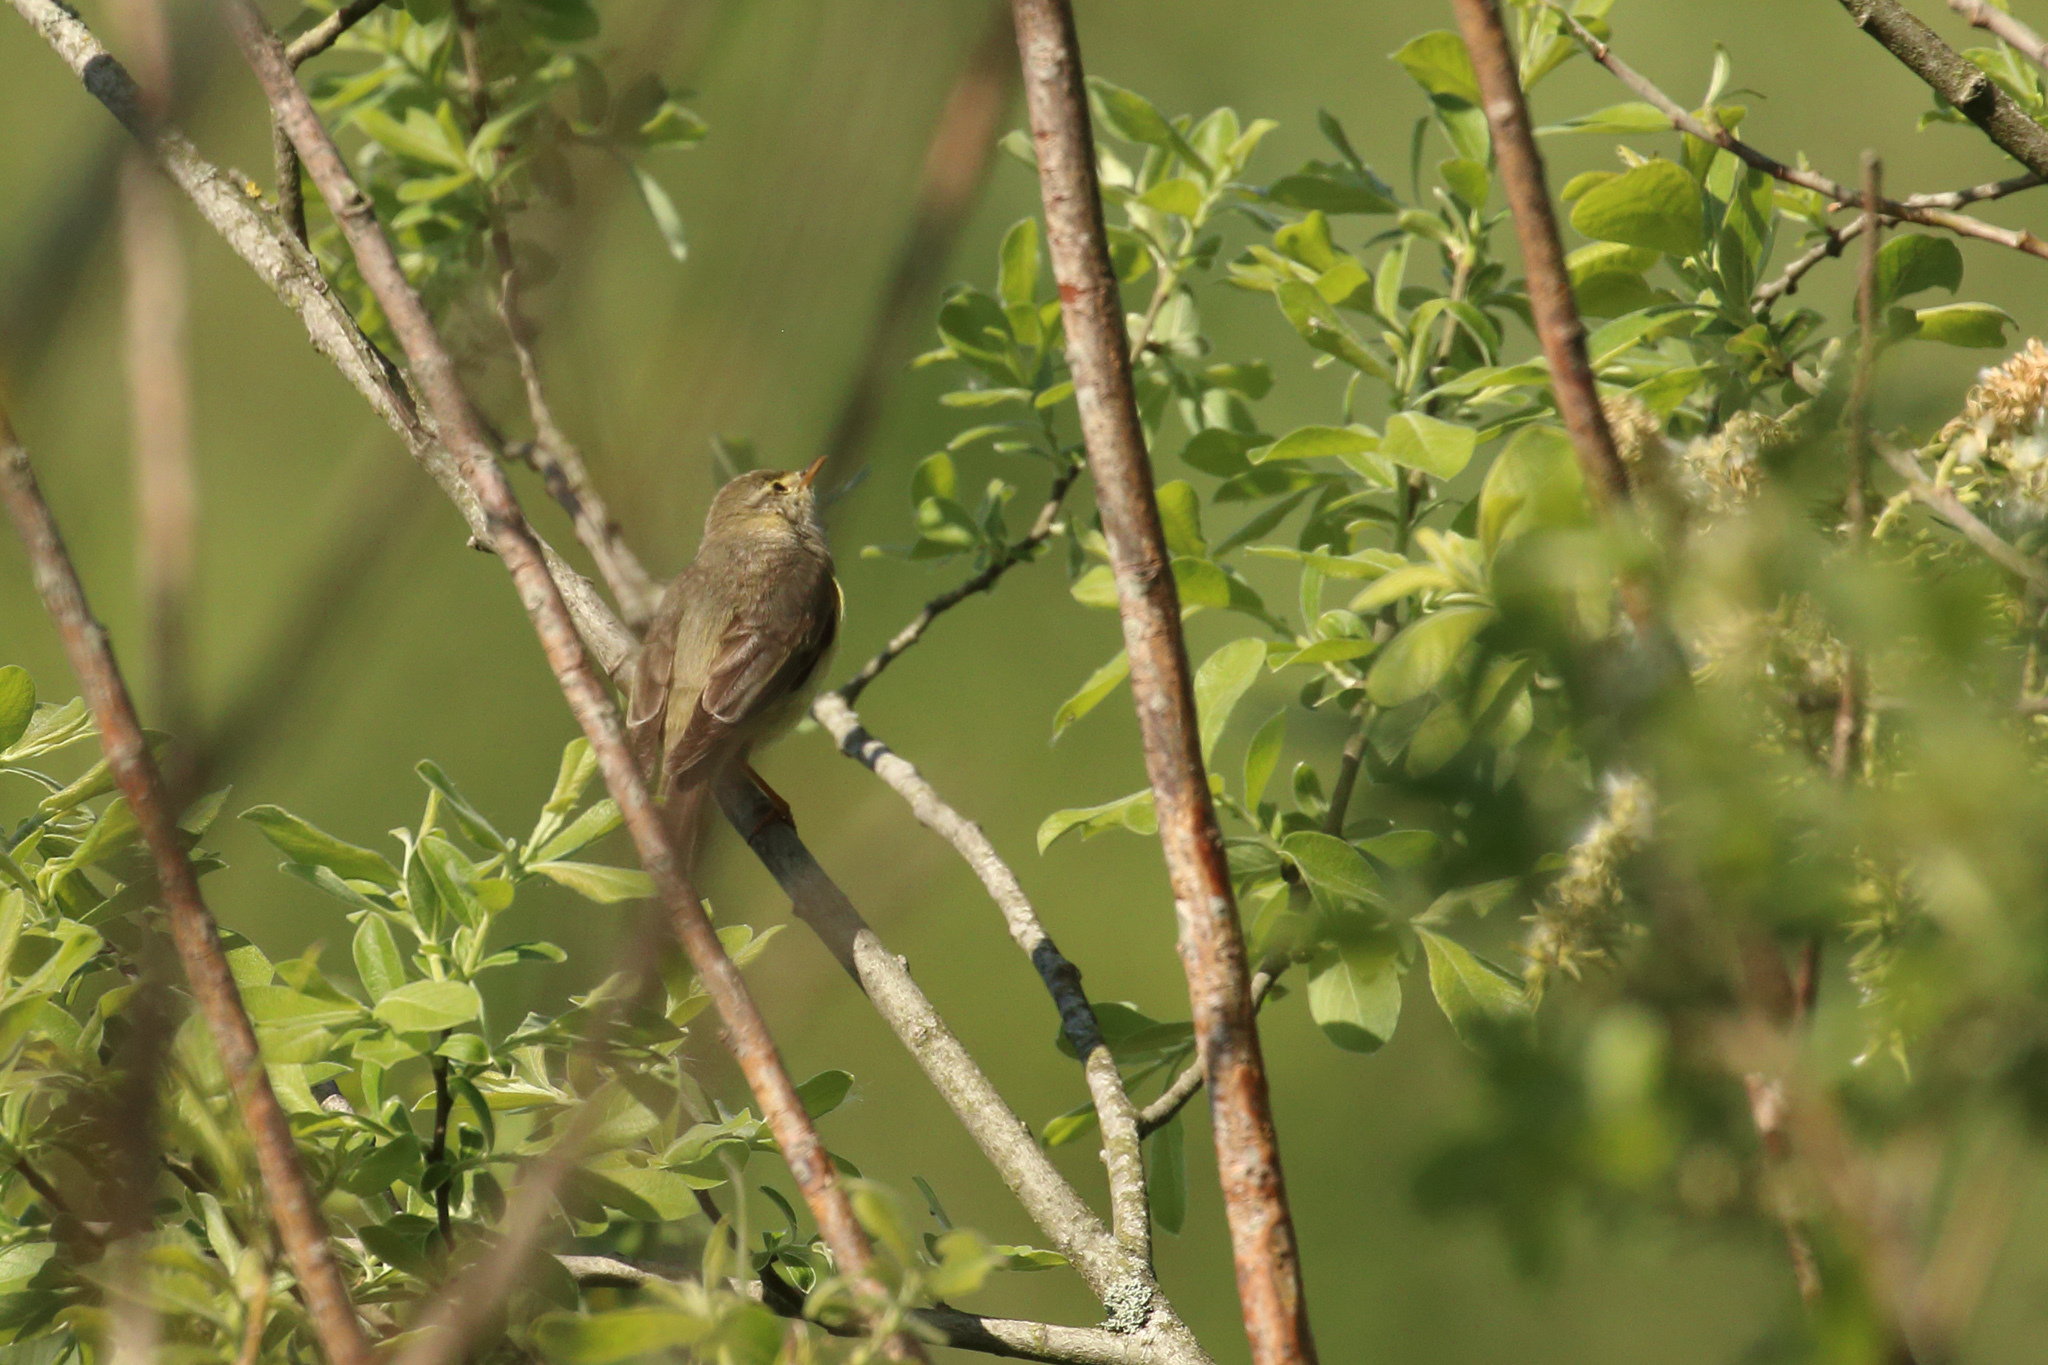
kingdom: Animalia
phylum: Chordata
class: Aves
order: Passeriformes
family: Phylloscopidae
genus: Phylloscopus
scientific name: Phylloscopus trochilus
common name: Willow warbler
